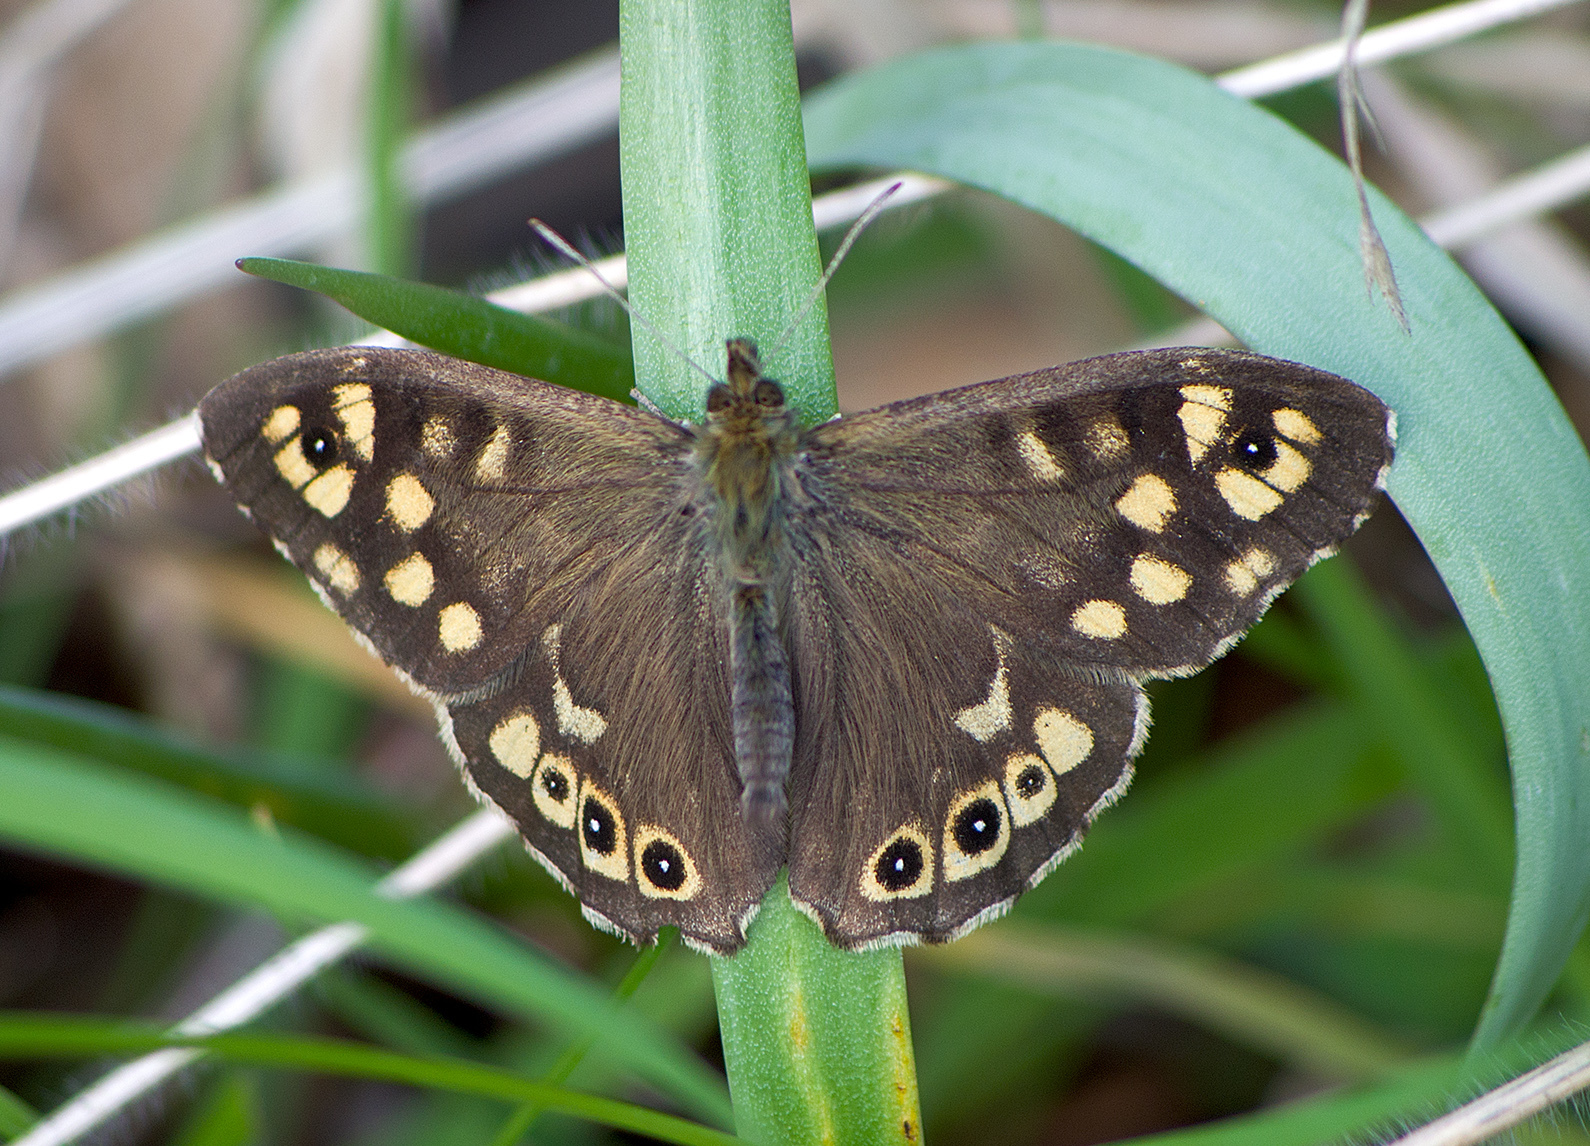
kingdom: Animalia
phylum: Arthropoda
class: Insecta
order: Lepidoptera
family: Nymphalidae
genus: Pararge
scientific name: Pararge aegeria
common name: Speckled wood
